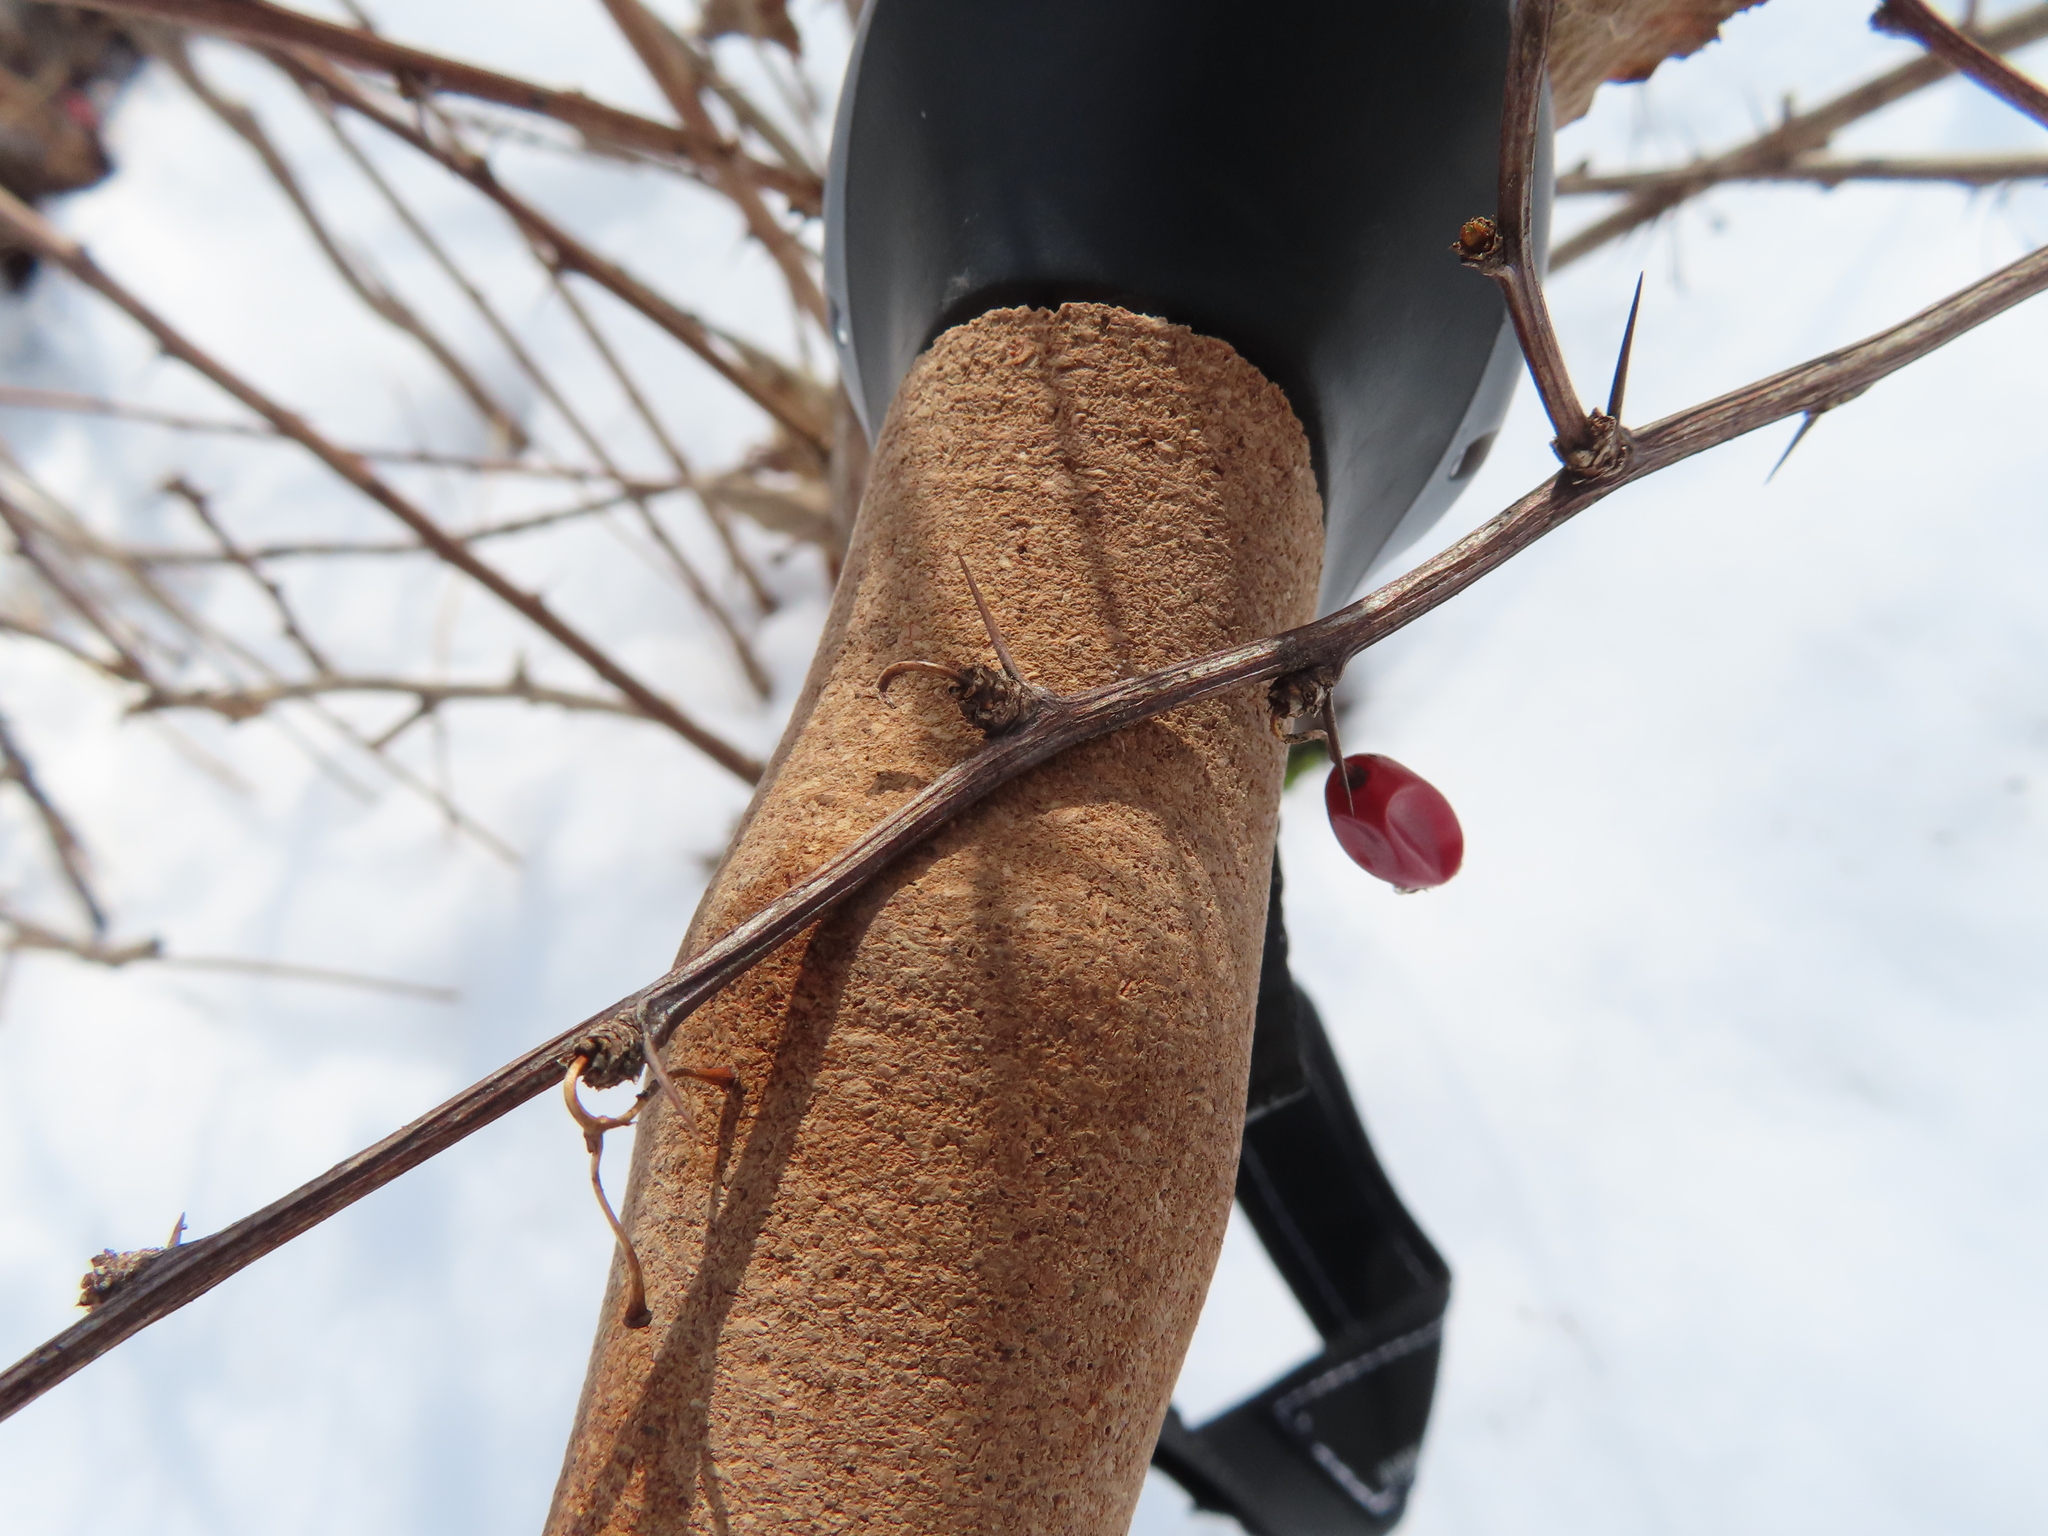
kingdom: Plantae
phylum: Tracheophyta
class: Magnoliopsida
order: Ranunculales
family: Berberidaceae
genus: Berberis
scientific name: Berberis thunbergii
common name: Japanese barberry
